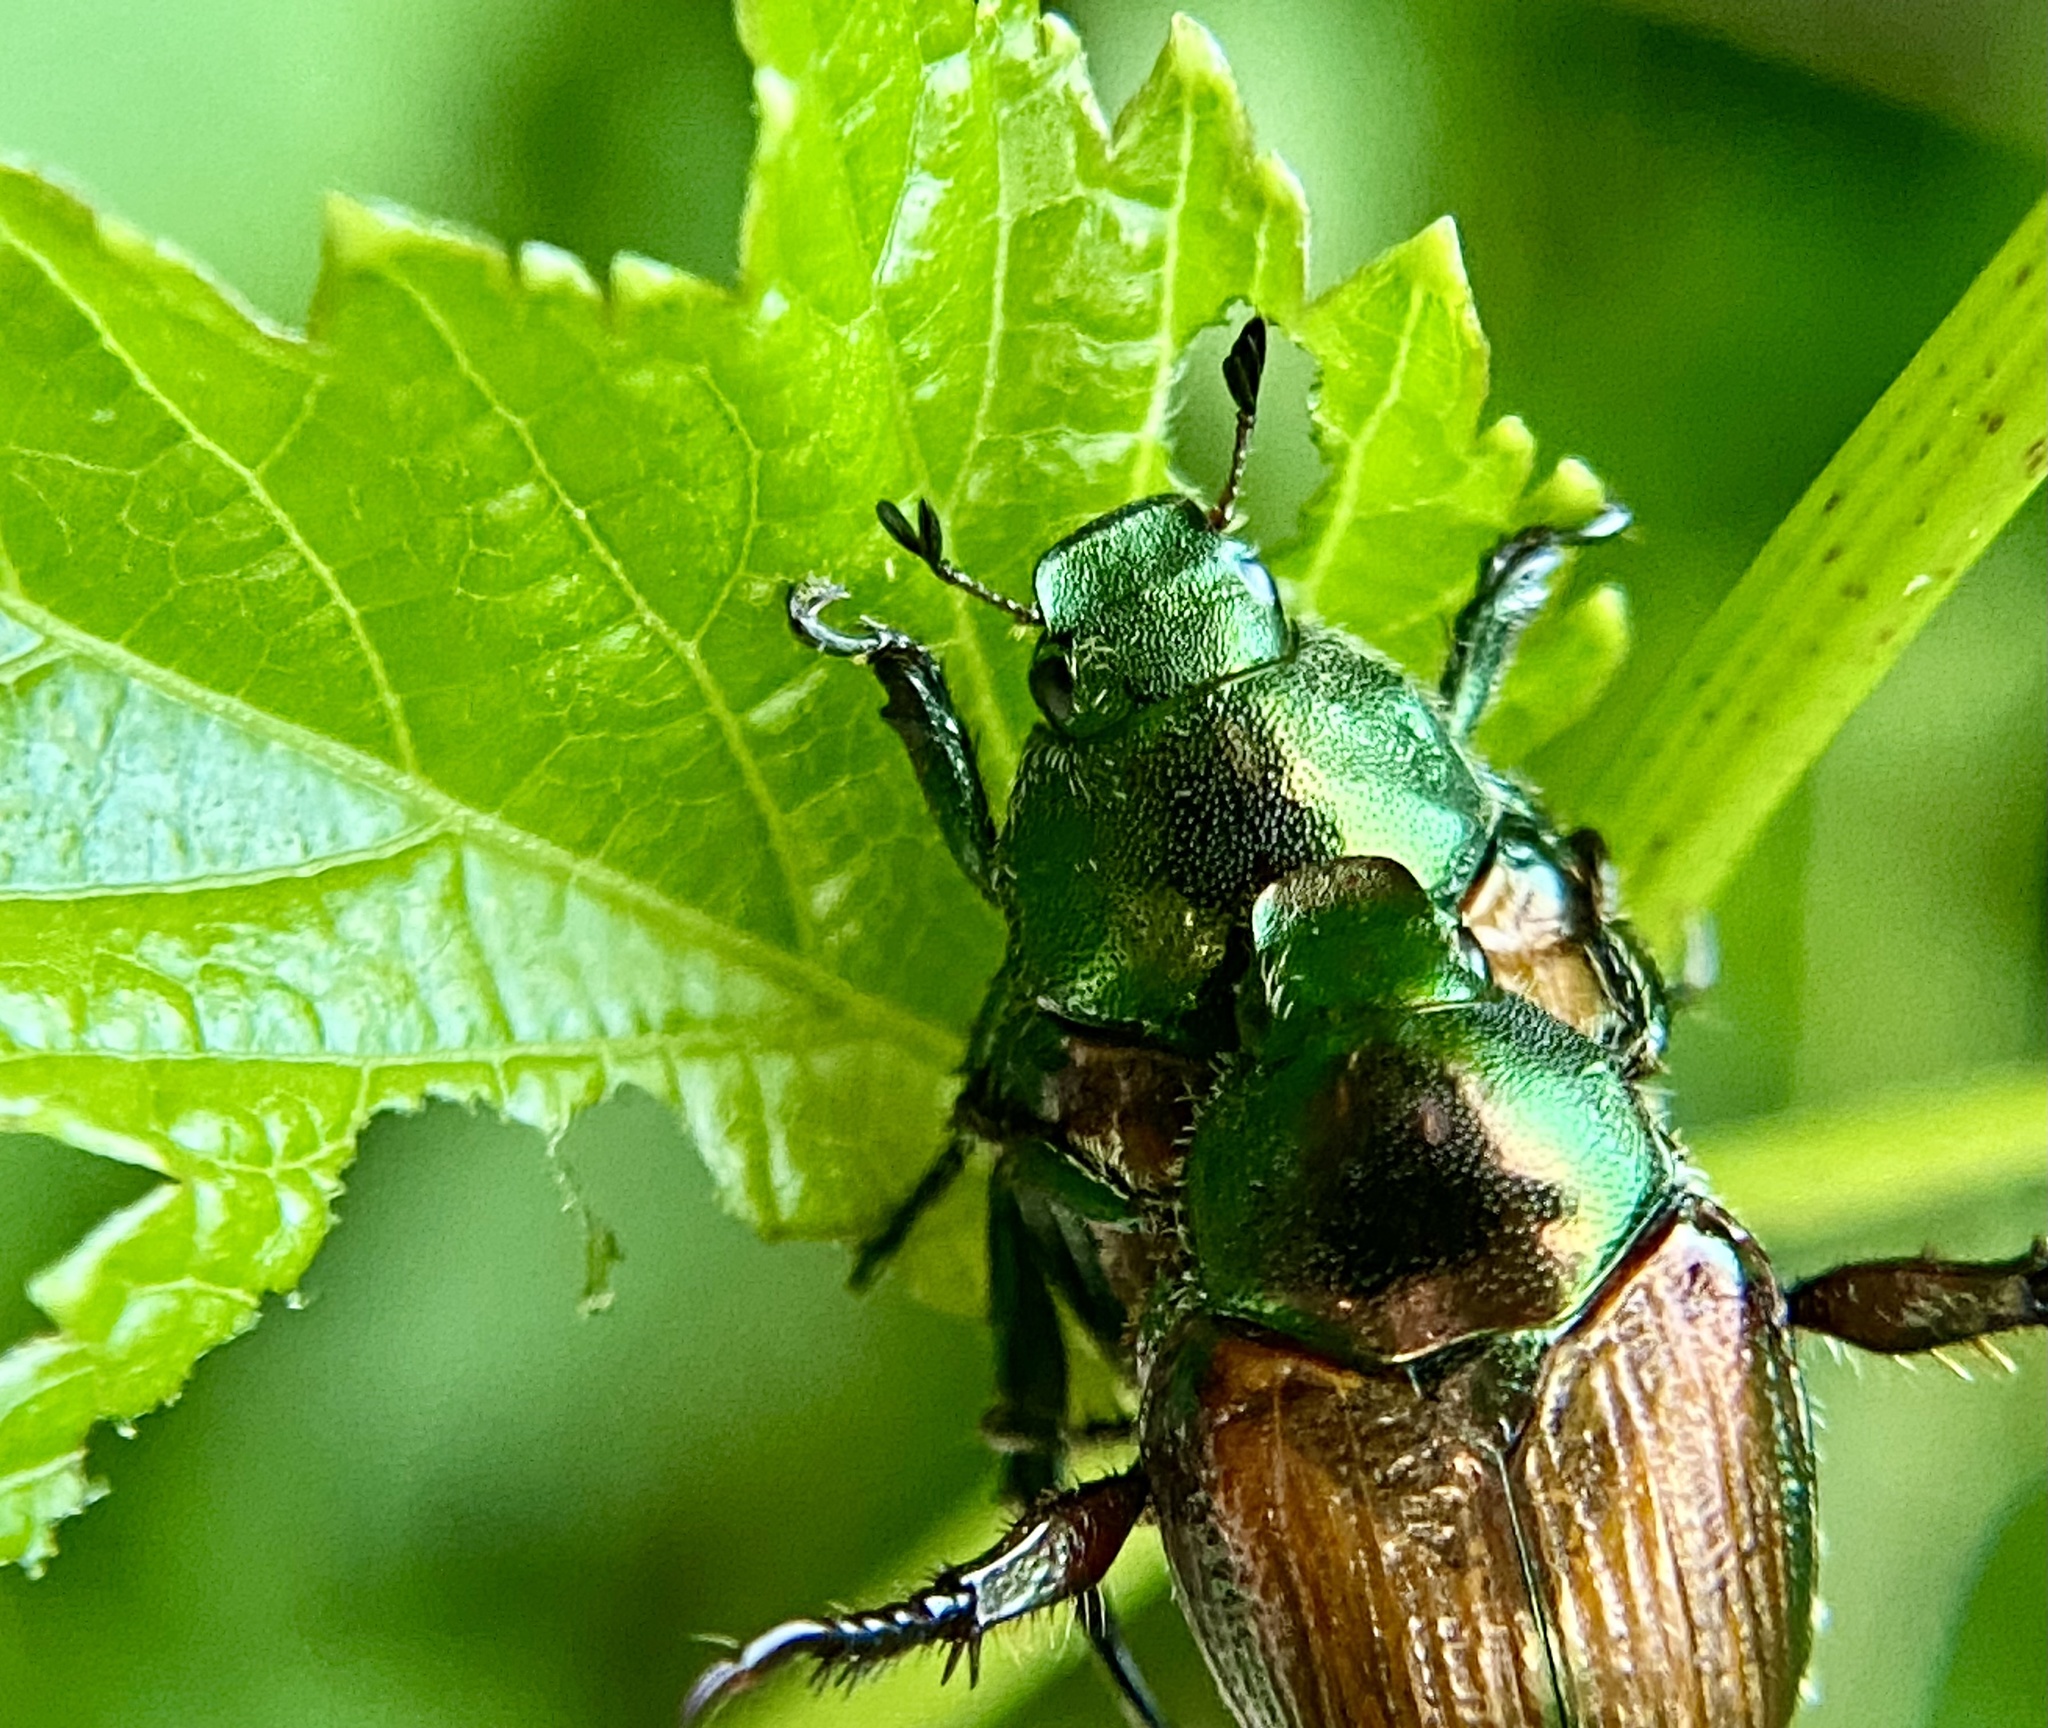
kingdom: Animalia
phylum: Arthropoda
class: Insecta
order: Coleoptera
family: Scarabaeidae
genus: Popillia
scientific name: Popillia japonica
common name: Japanese beetle
